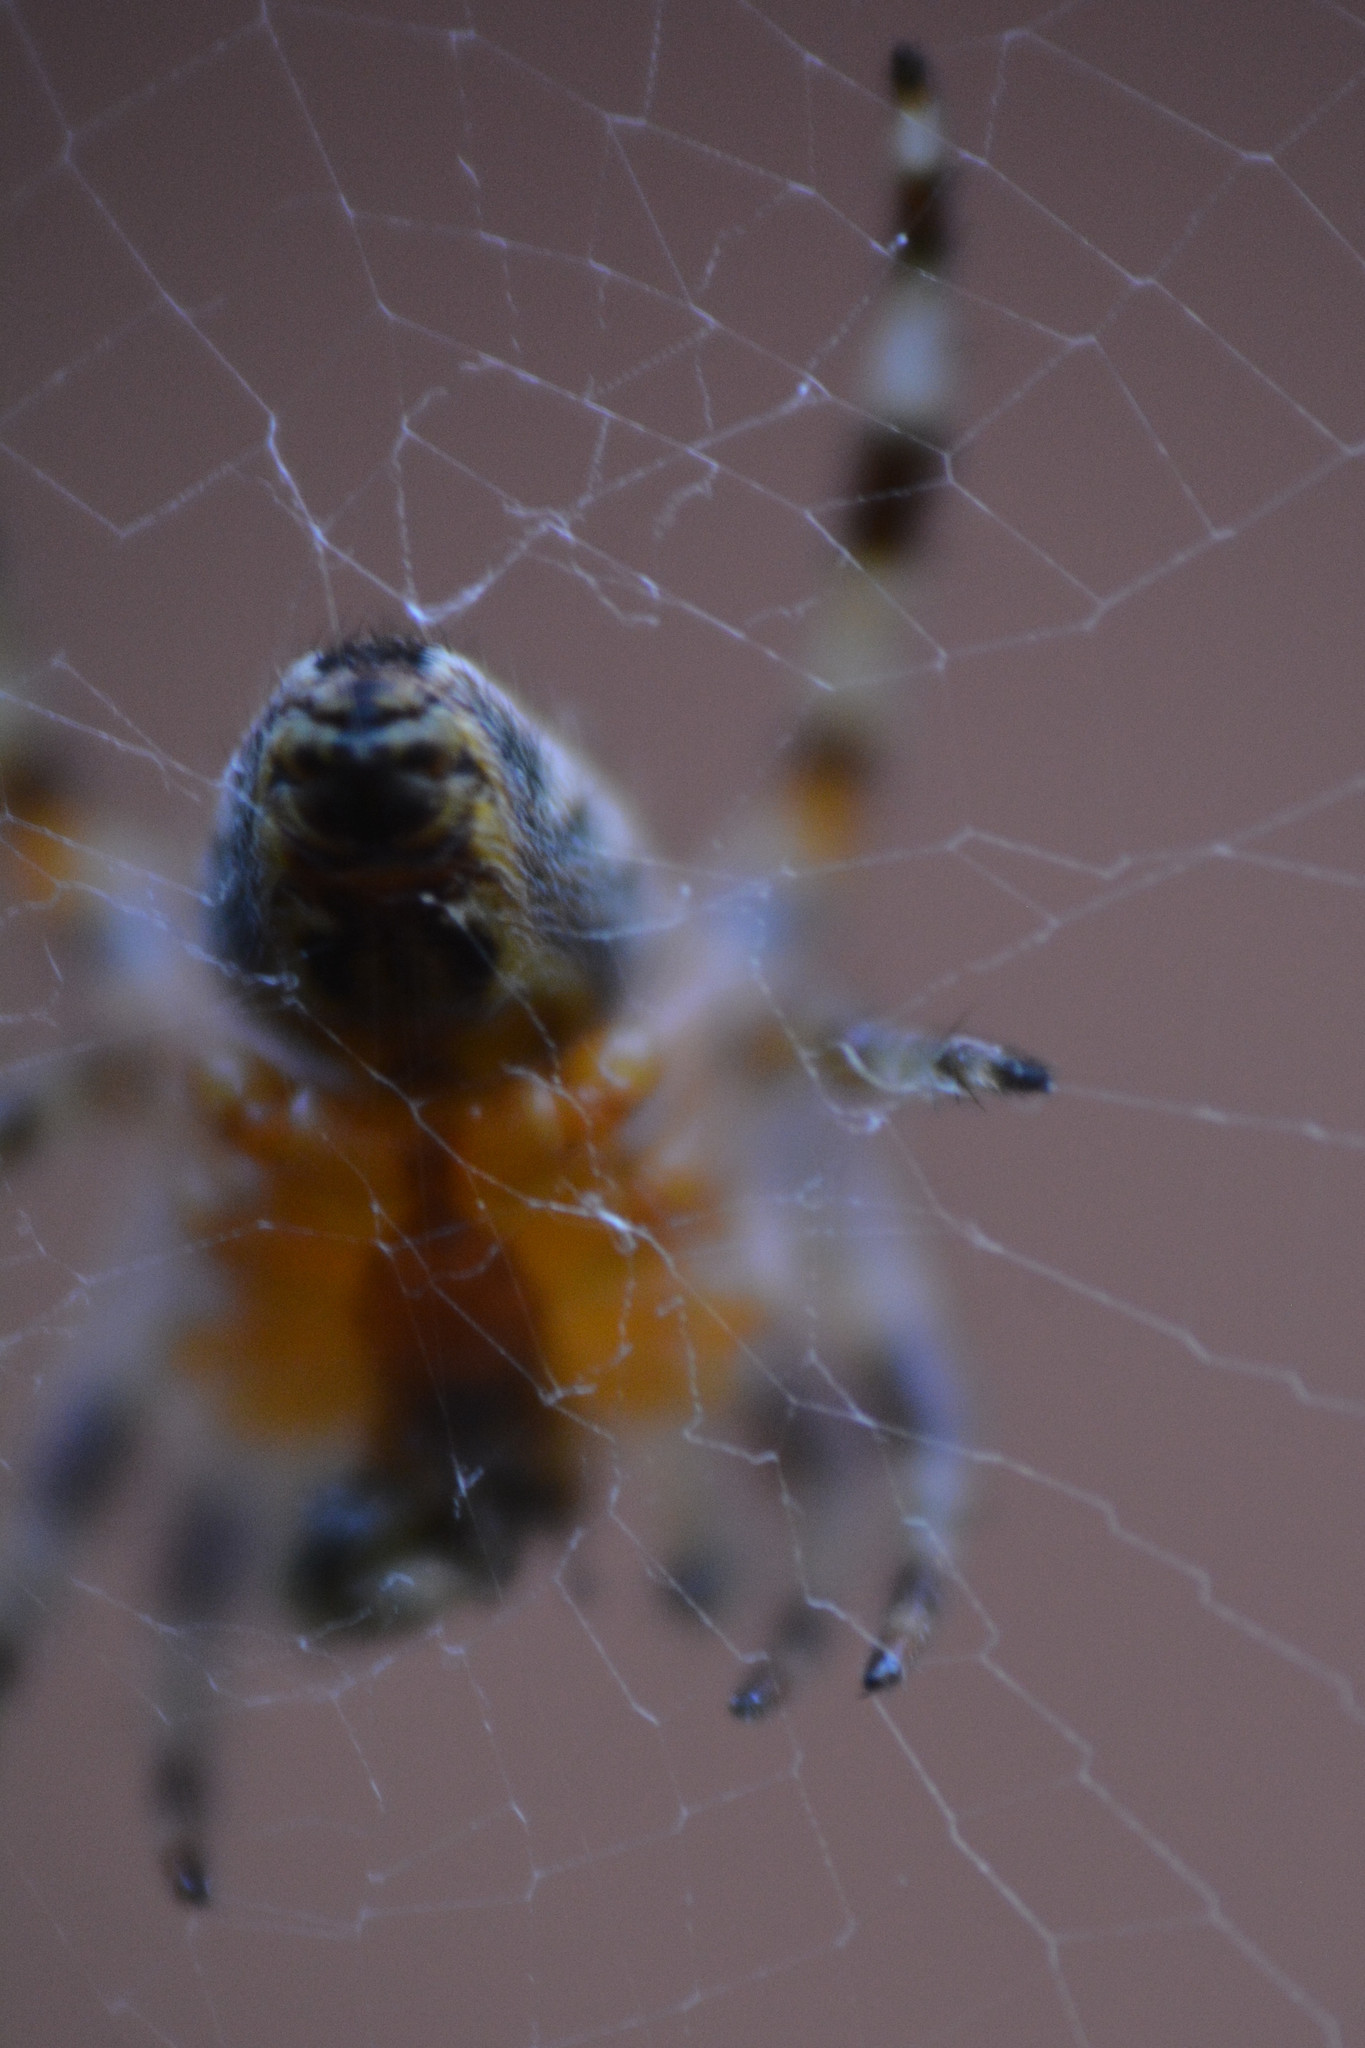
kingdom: Animalia
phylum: Arthropoda
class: Arachnida
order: Araneae
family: Araneidae
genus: Araneus
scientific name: Araneus diadematus
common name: Cross orbweaver
